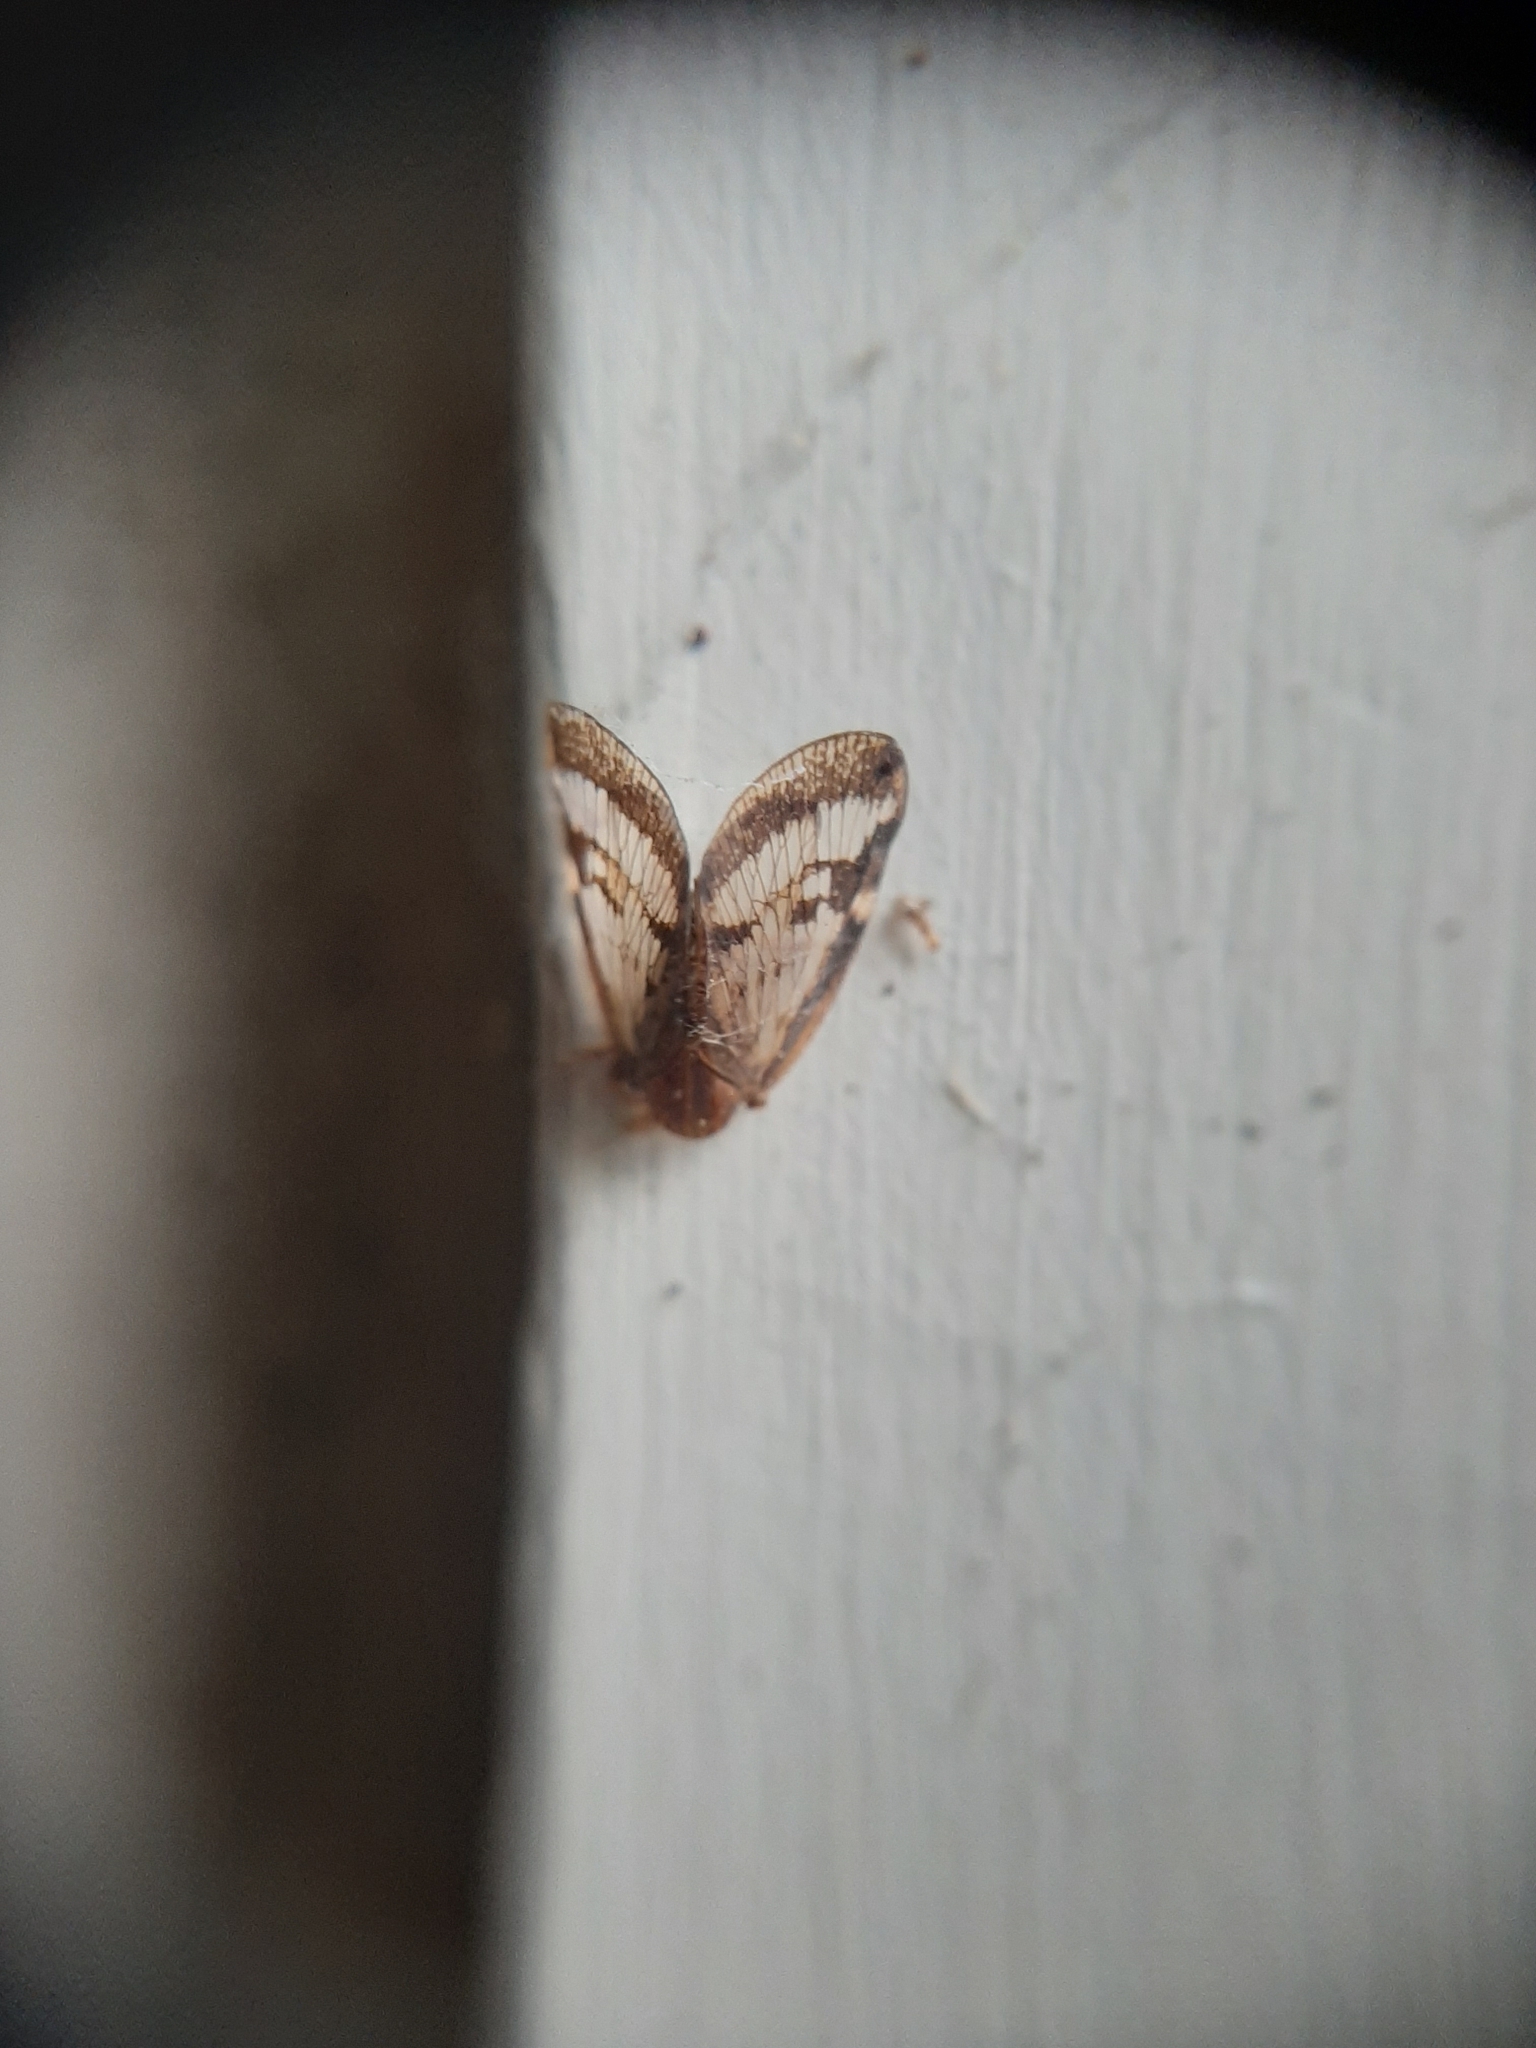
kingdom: Animalia
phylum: Arthropoda
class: Insecta
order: Hemiptera
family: Ricaniidae
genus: Scolypopa
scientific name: Scolypopa australis
